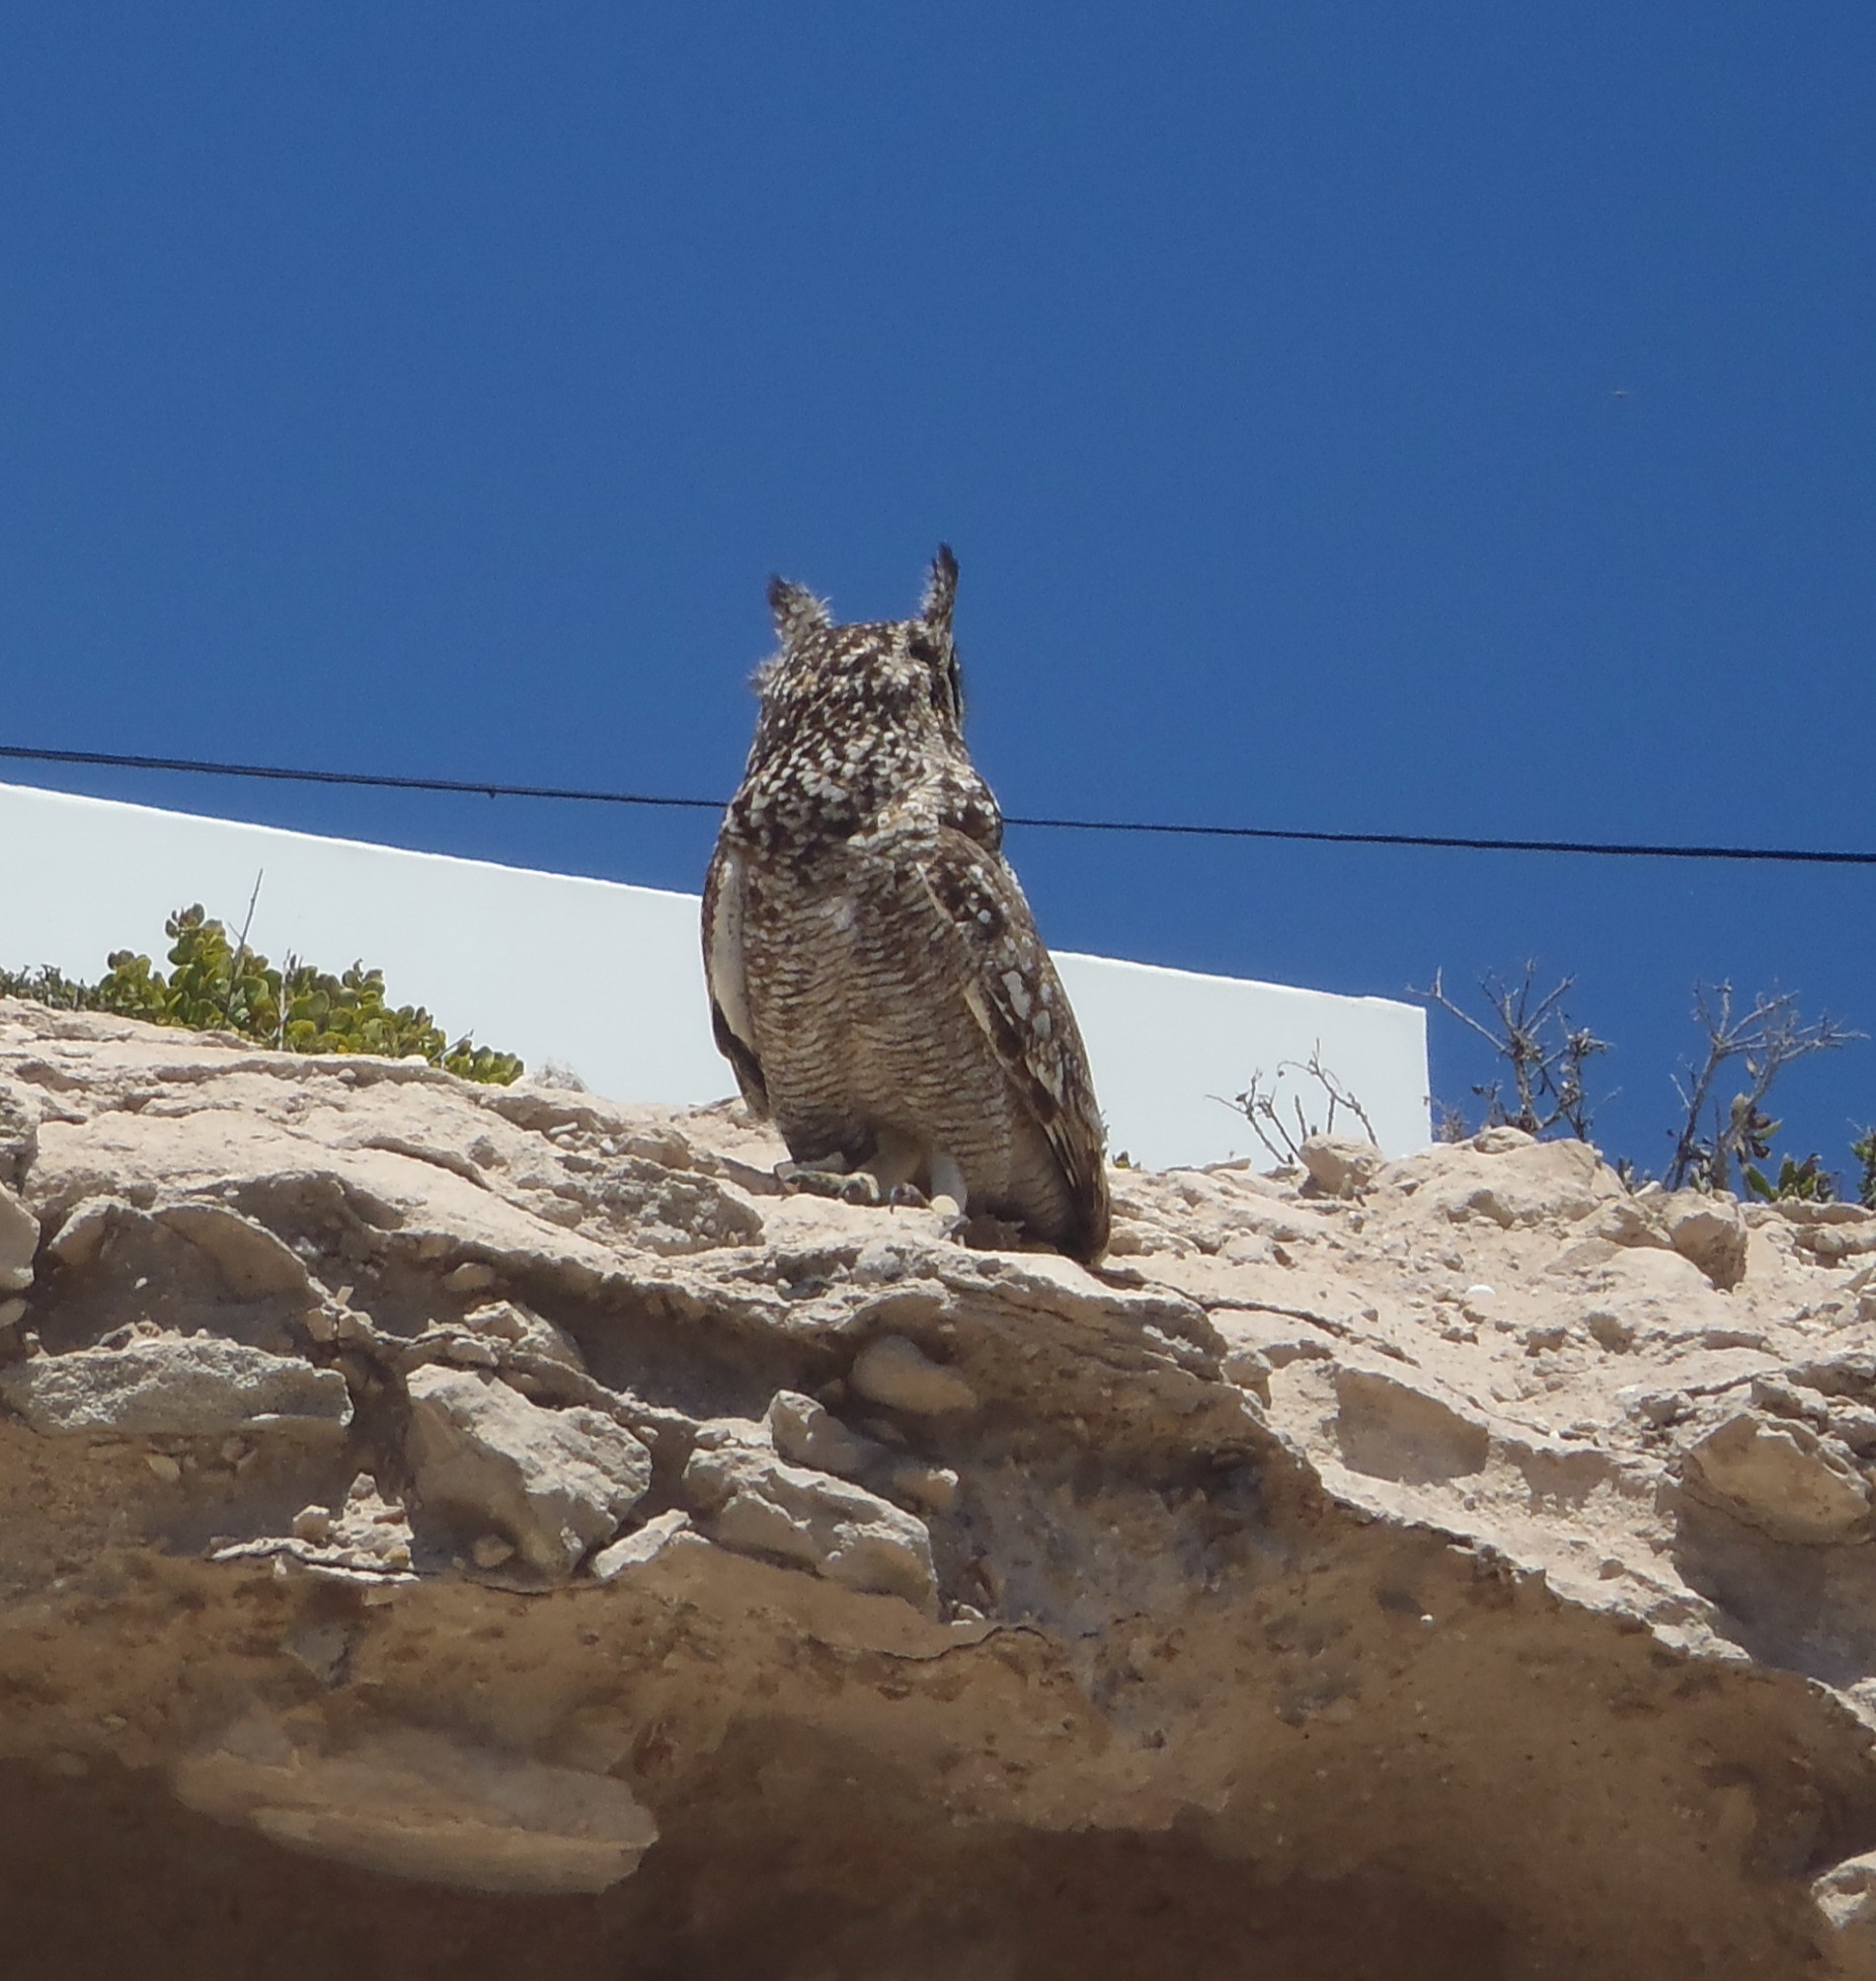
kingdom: Animalia
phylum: Chordata
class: Aves
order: Strigiformes
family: Strigidae
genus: Bubo
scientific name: Bubo africanus
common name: Spotted eagle-owl
